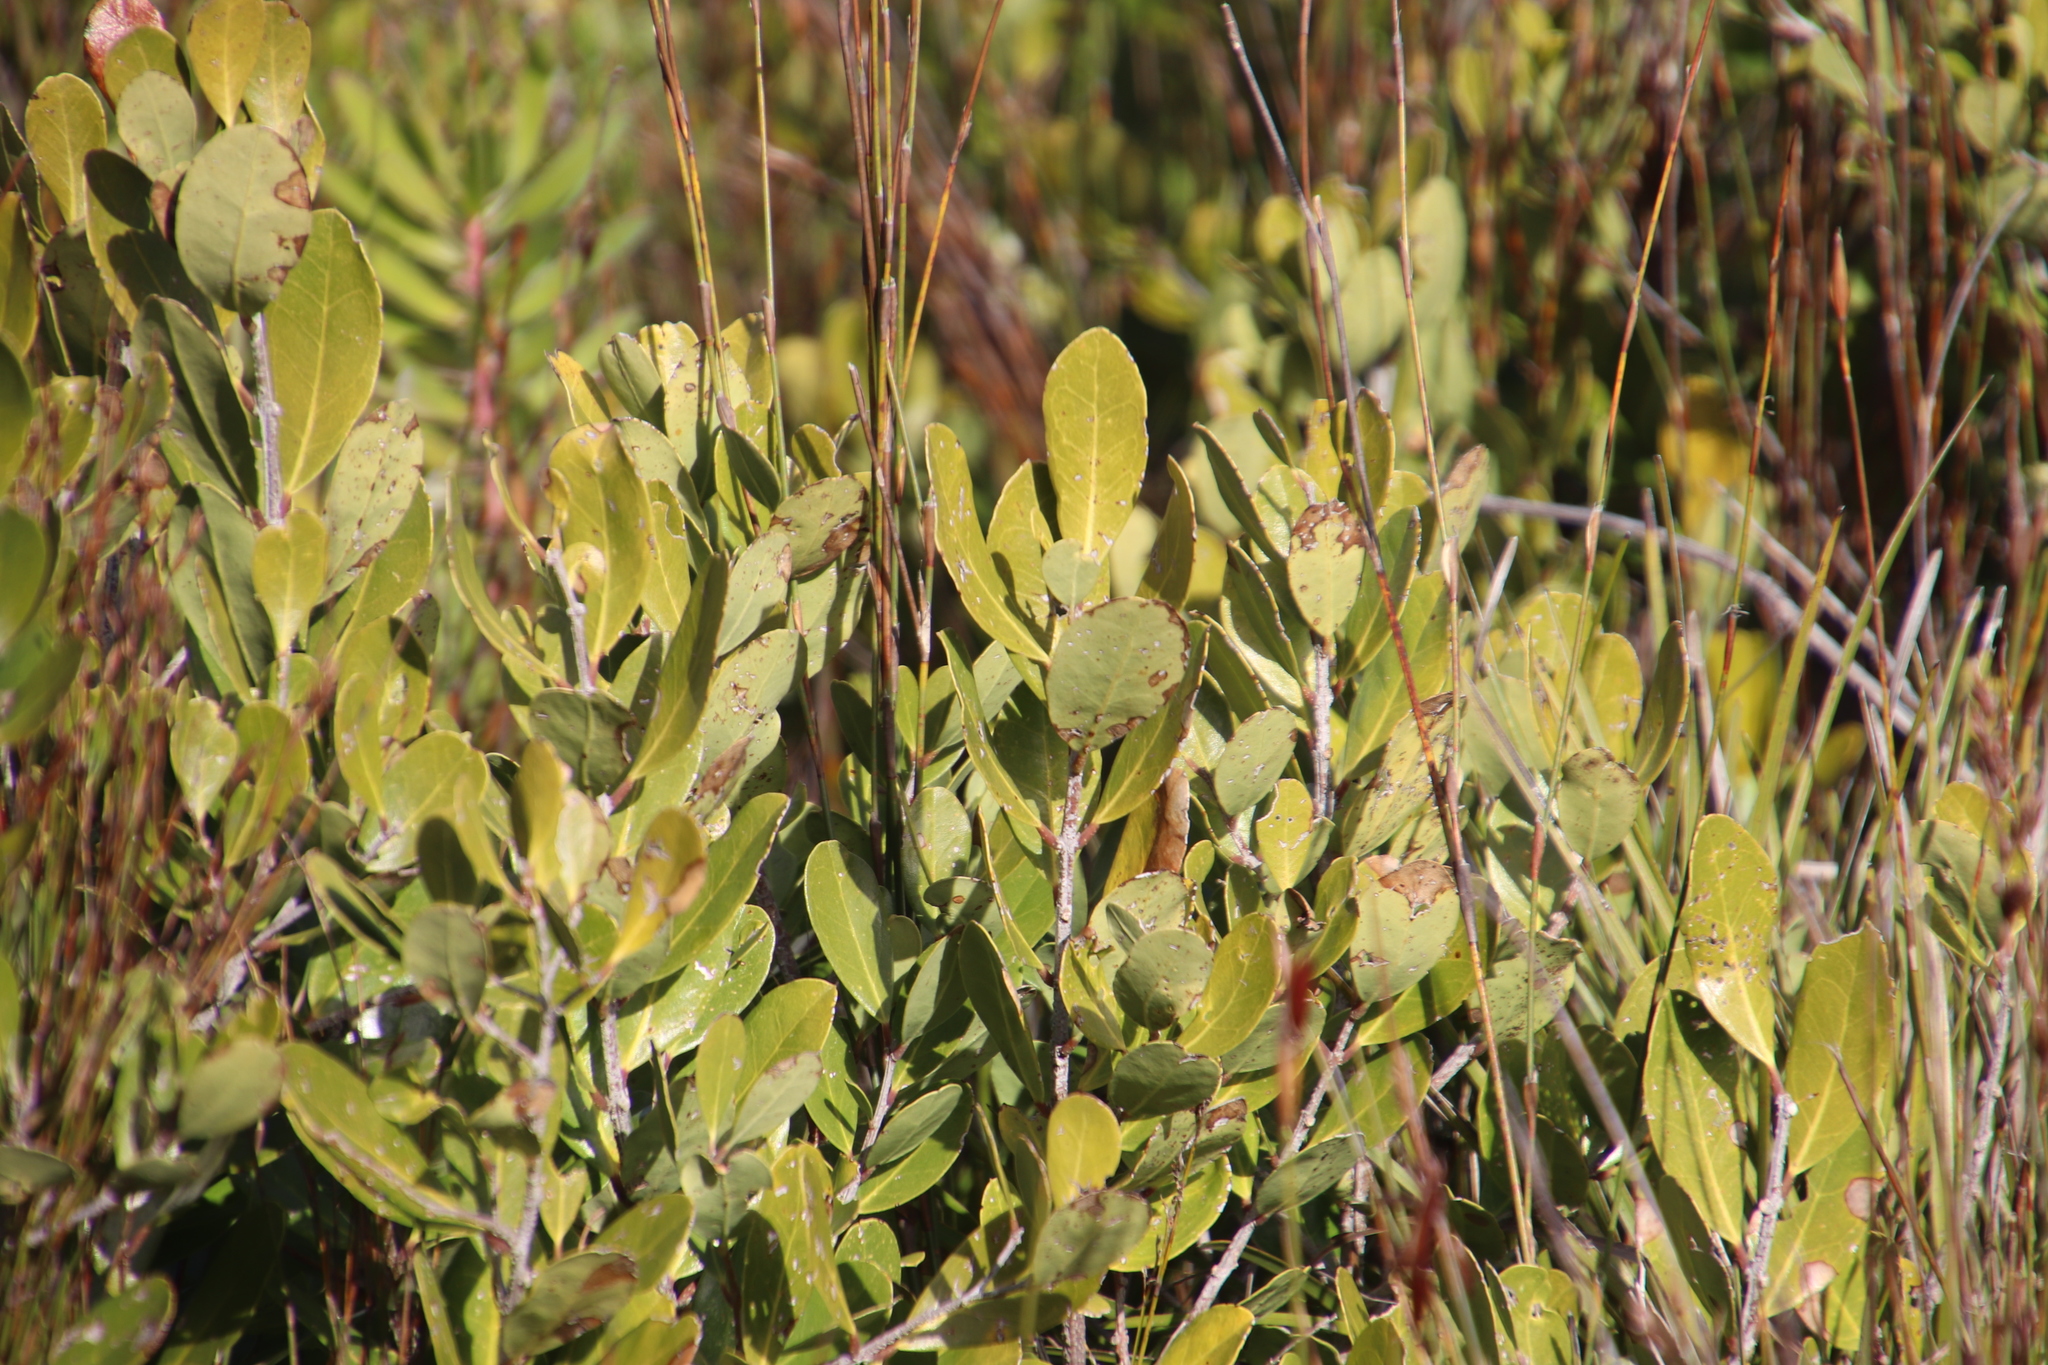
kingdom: Plantae
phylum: Tracheophyta
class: Magnoliopsida
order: Lamiales
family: Oleaceae
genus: Olea
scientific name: Olea capensis
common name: Black ironwood
